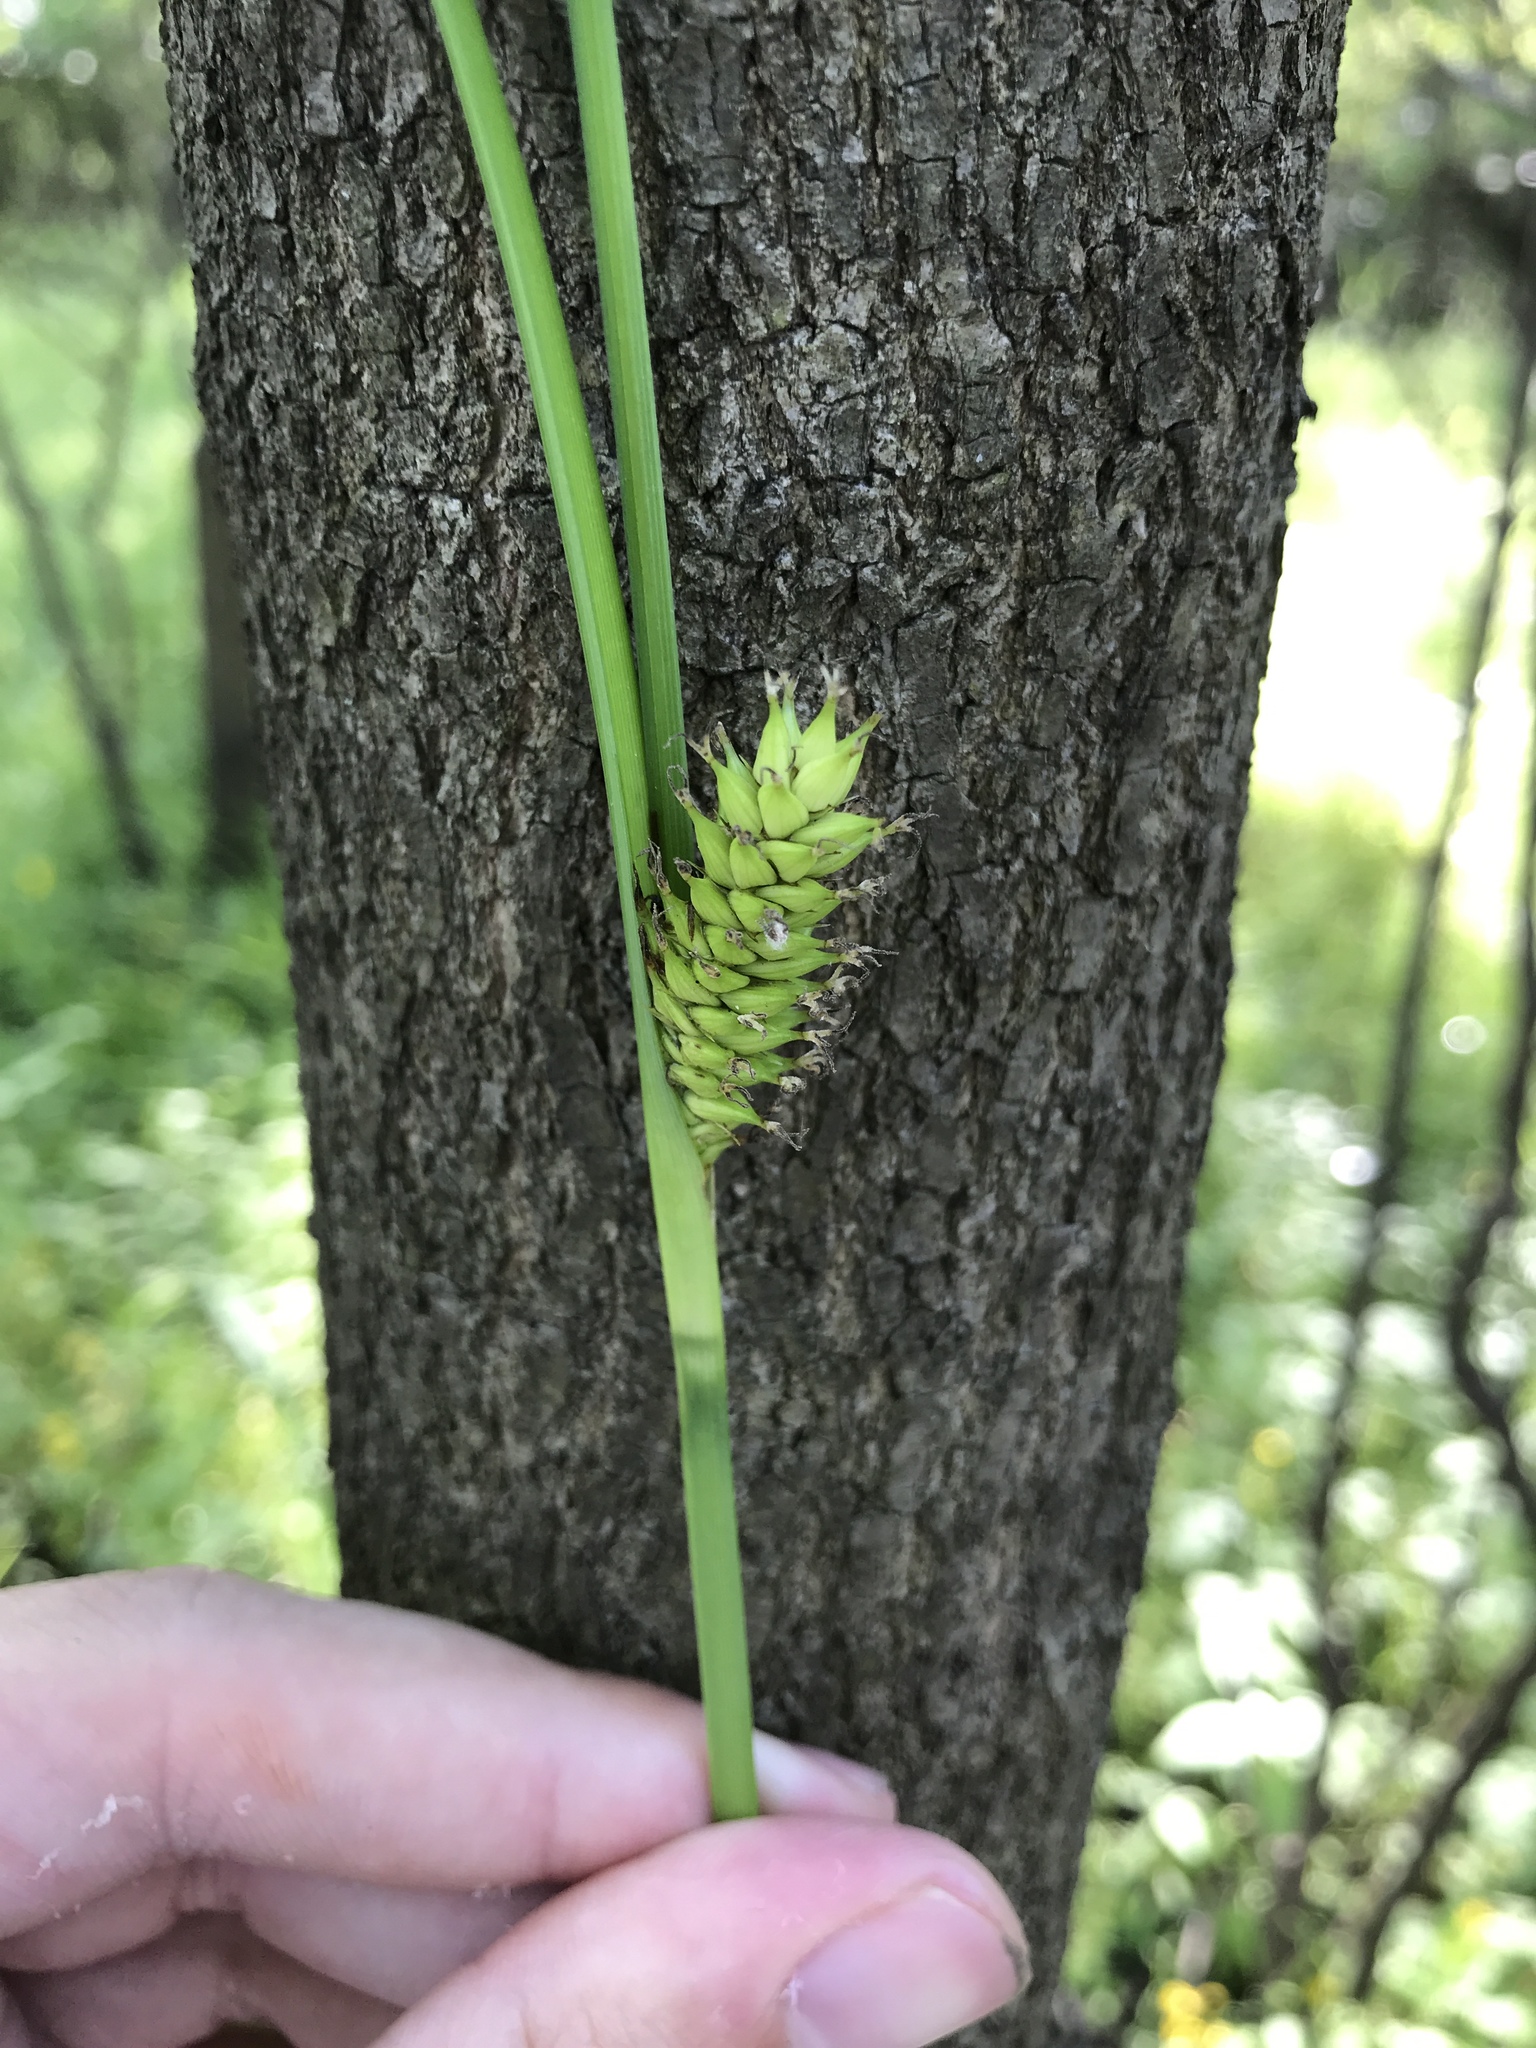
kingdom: Plantae
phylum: Tracheophyta
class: Liliopsida
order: Poales
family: Cyperaceae
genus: Carex
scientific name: Carex hyalinolepis
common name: Shoreline sedge
